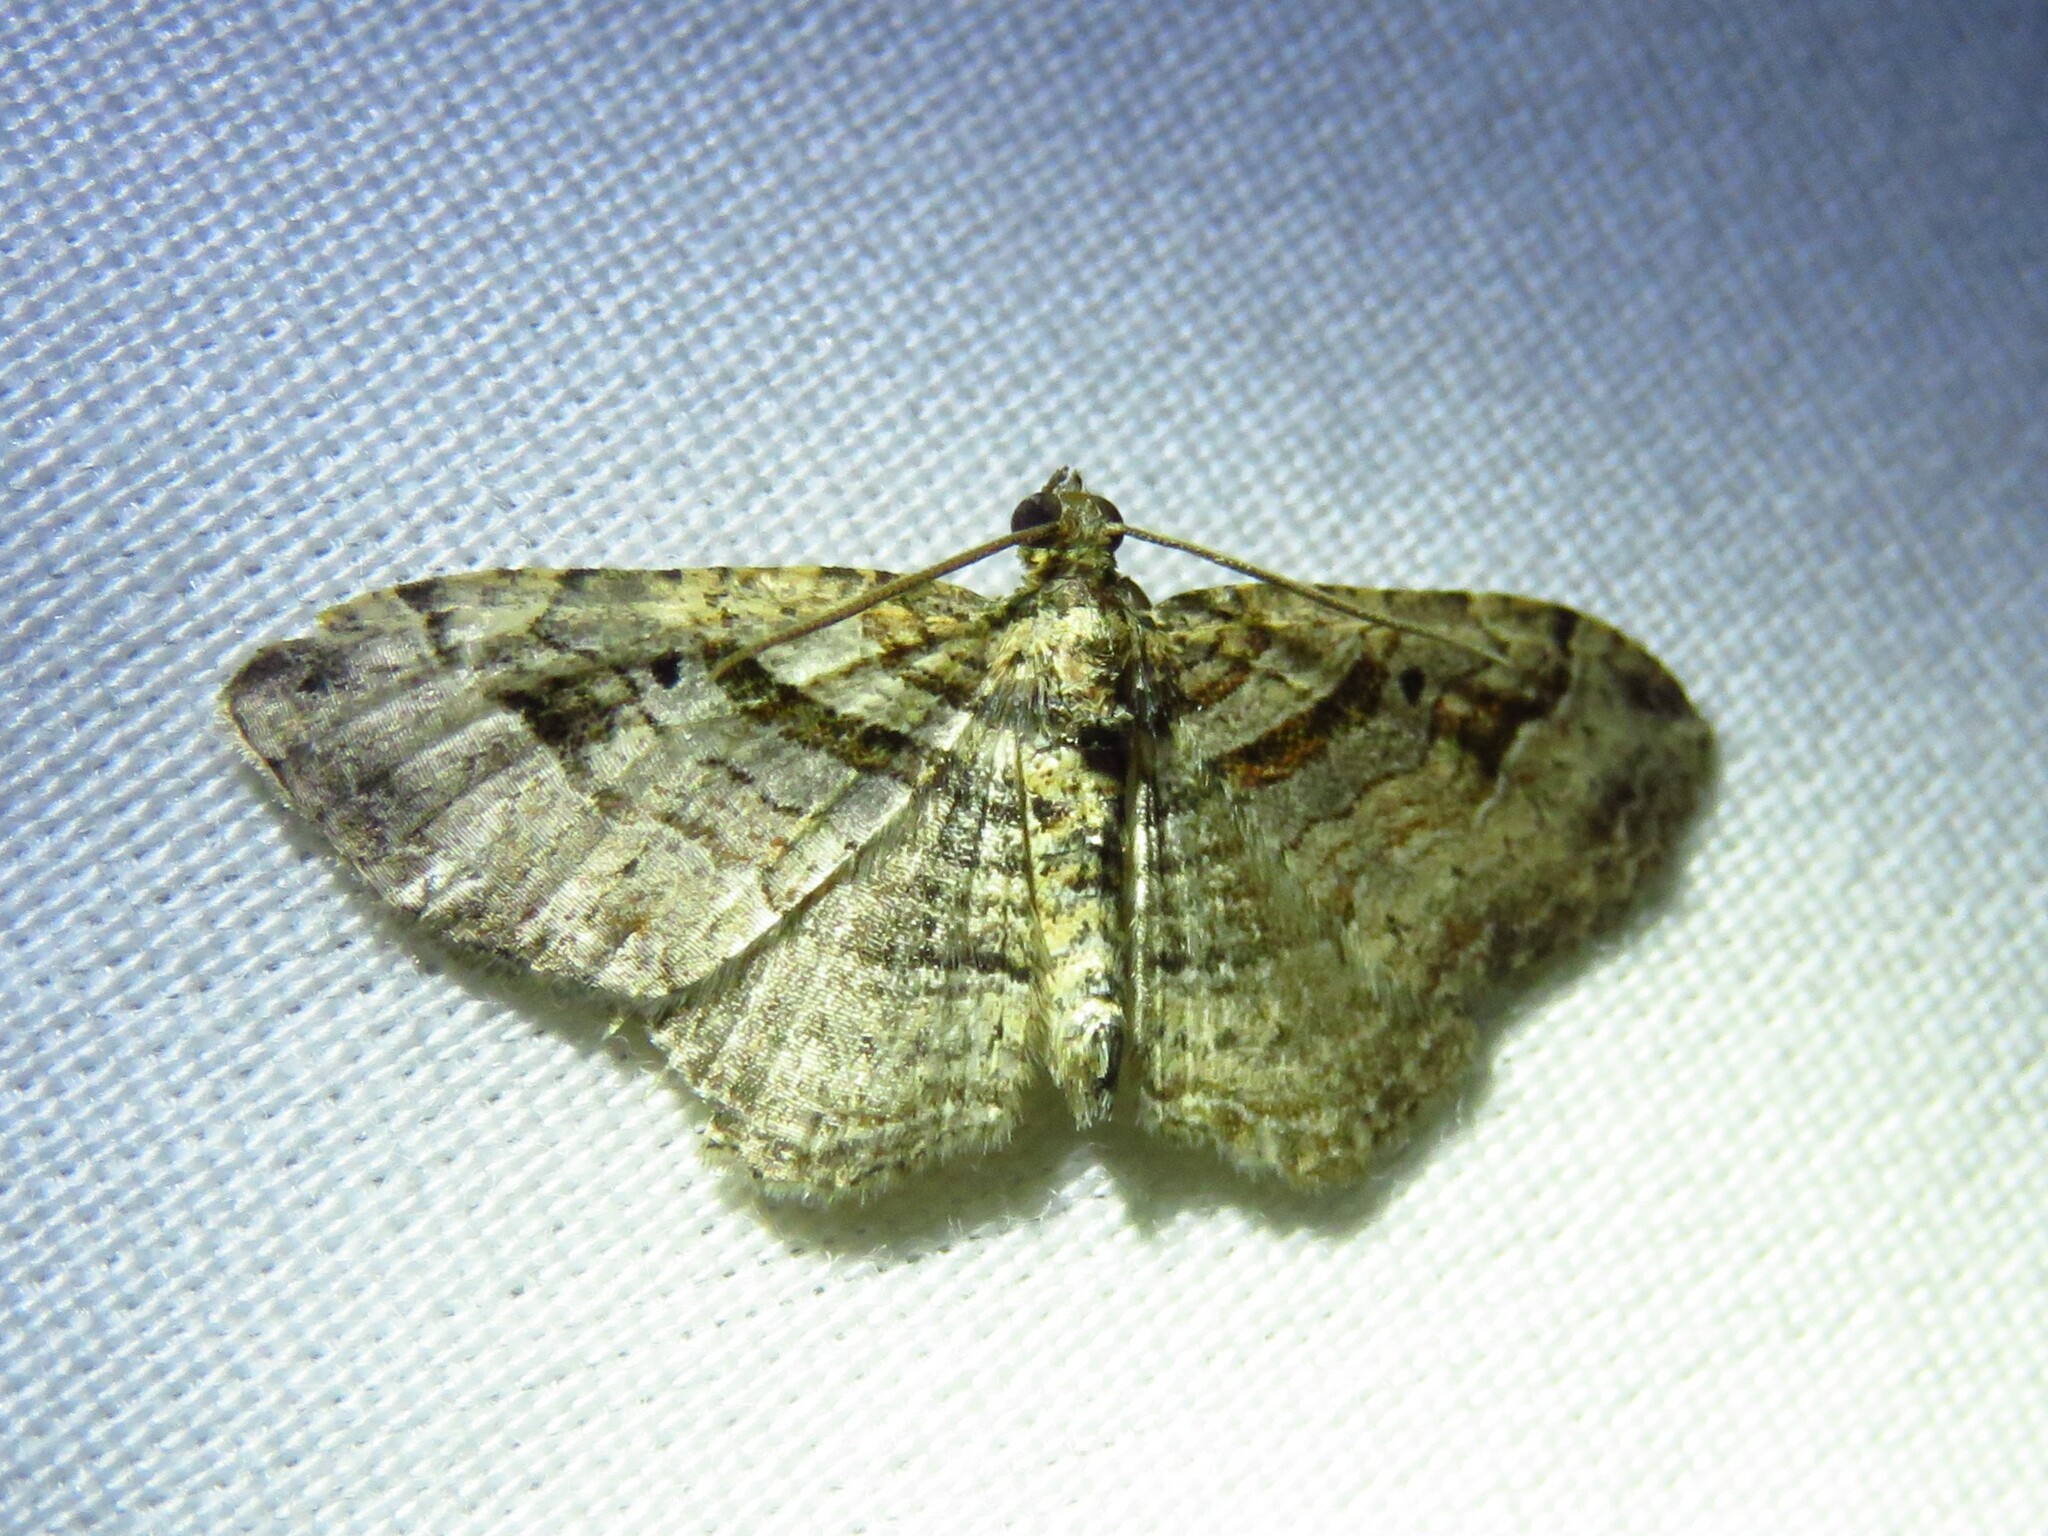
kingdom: Animalia
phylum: Arthropoda
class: Insecta
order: Lepidoptera
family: Geometridae
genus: Costaconvexa
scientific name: Costaconvexa centrostrigaria
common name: Bent-line carpet
